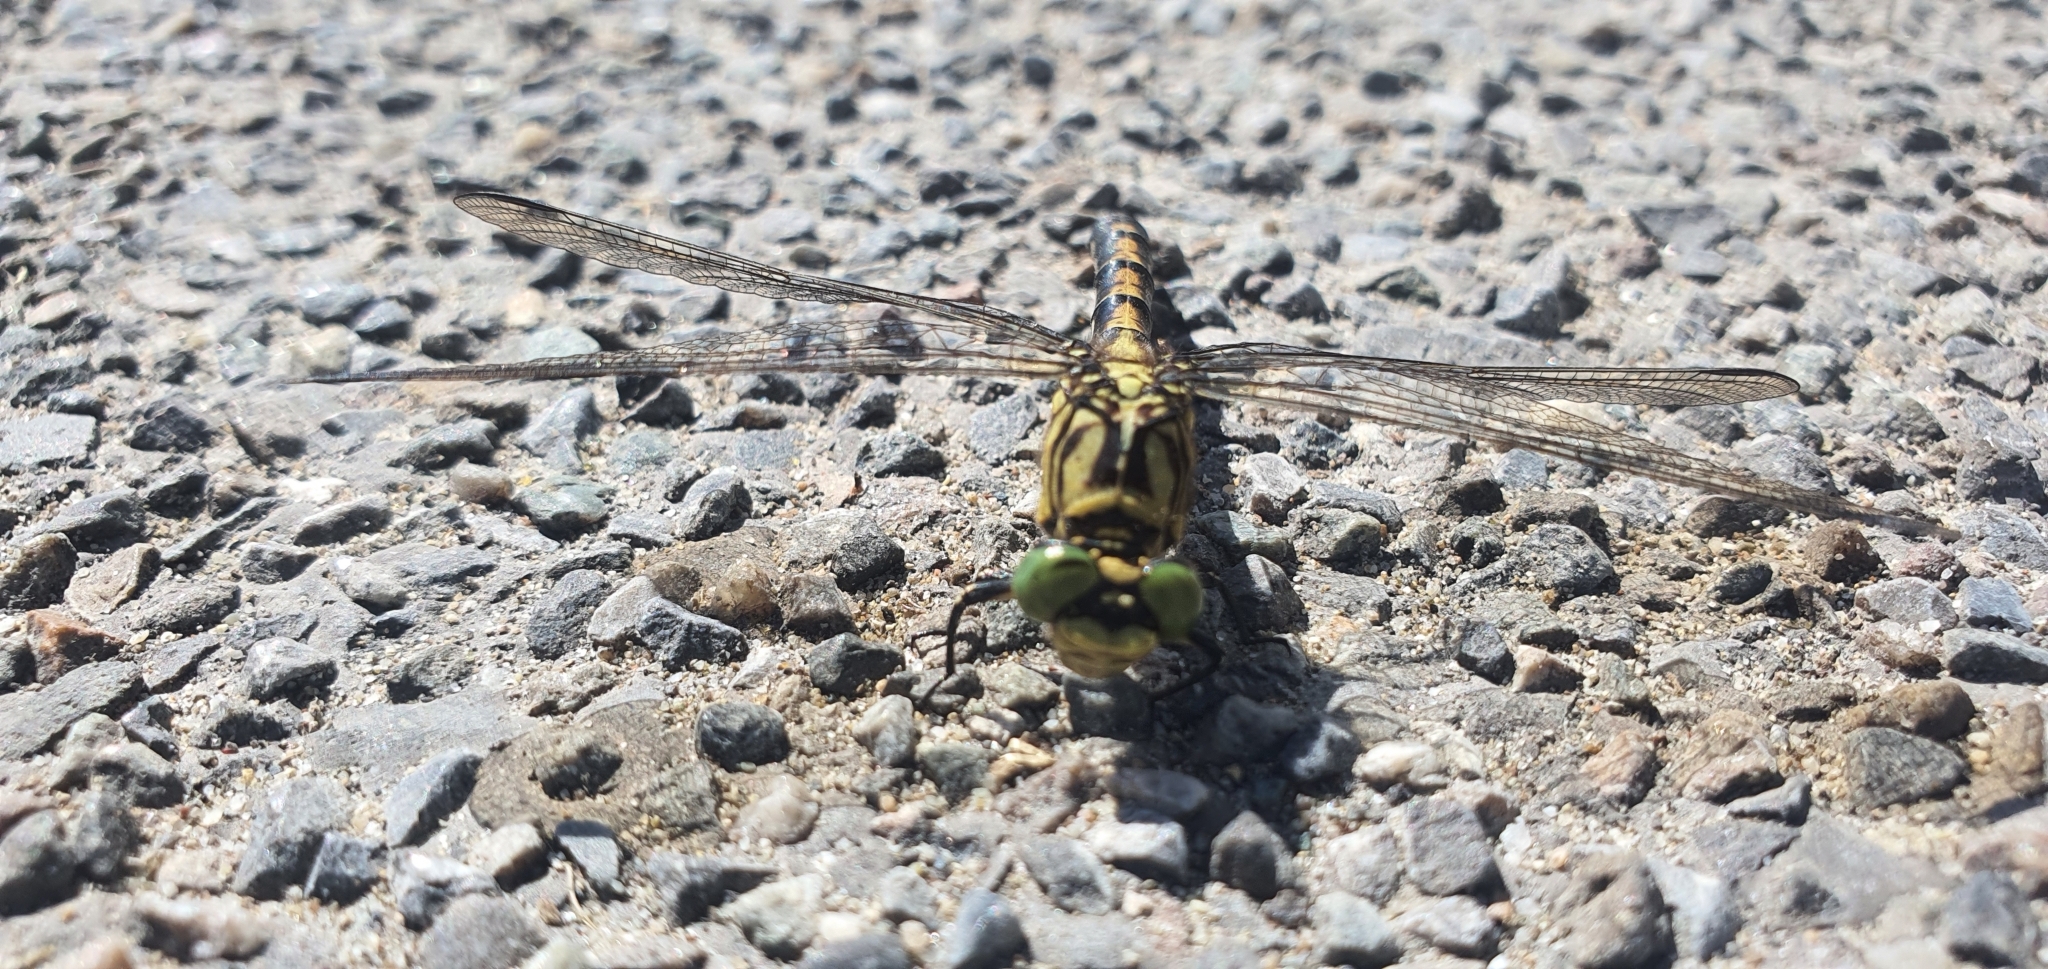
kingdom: Animalia
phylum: Arthropoda
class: Insecta
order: Odonata
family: Gomphidae
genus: Onychogomphus
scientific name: Onychogomphus forcipatus
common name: Small pincertail
